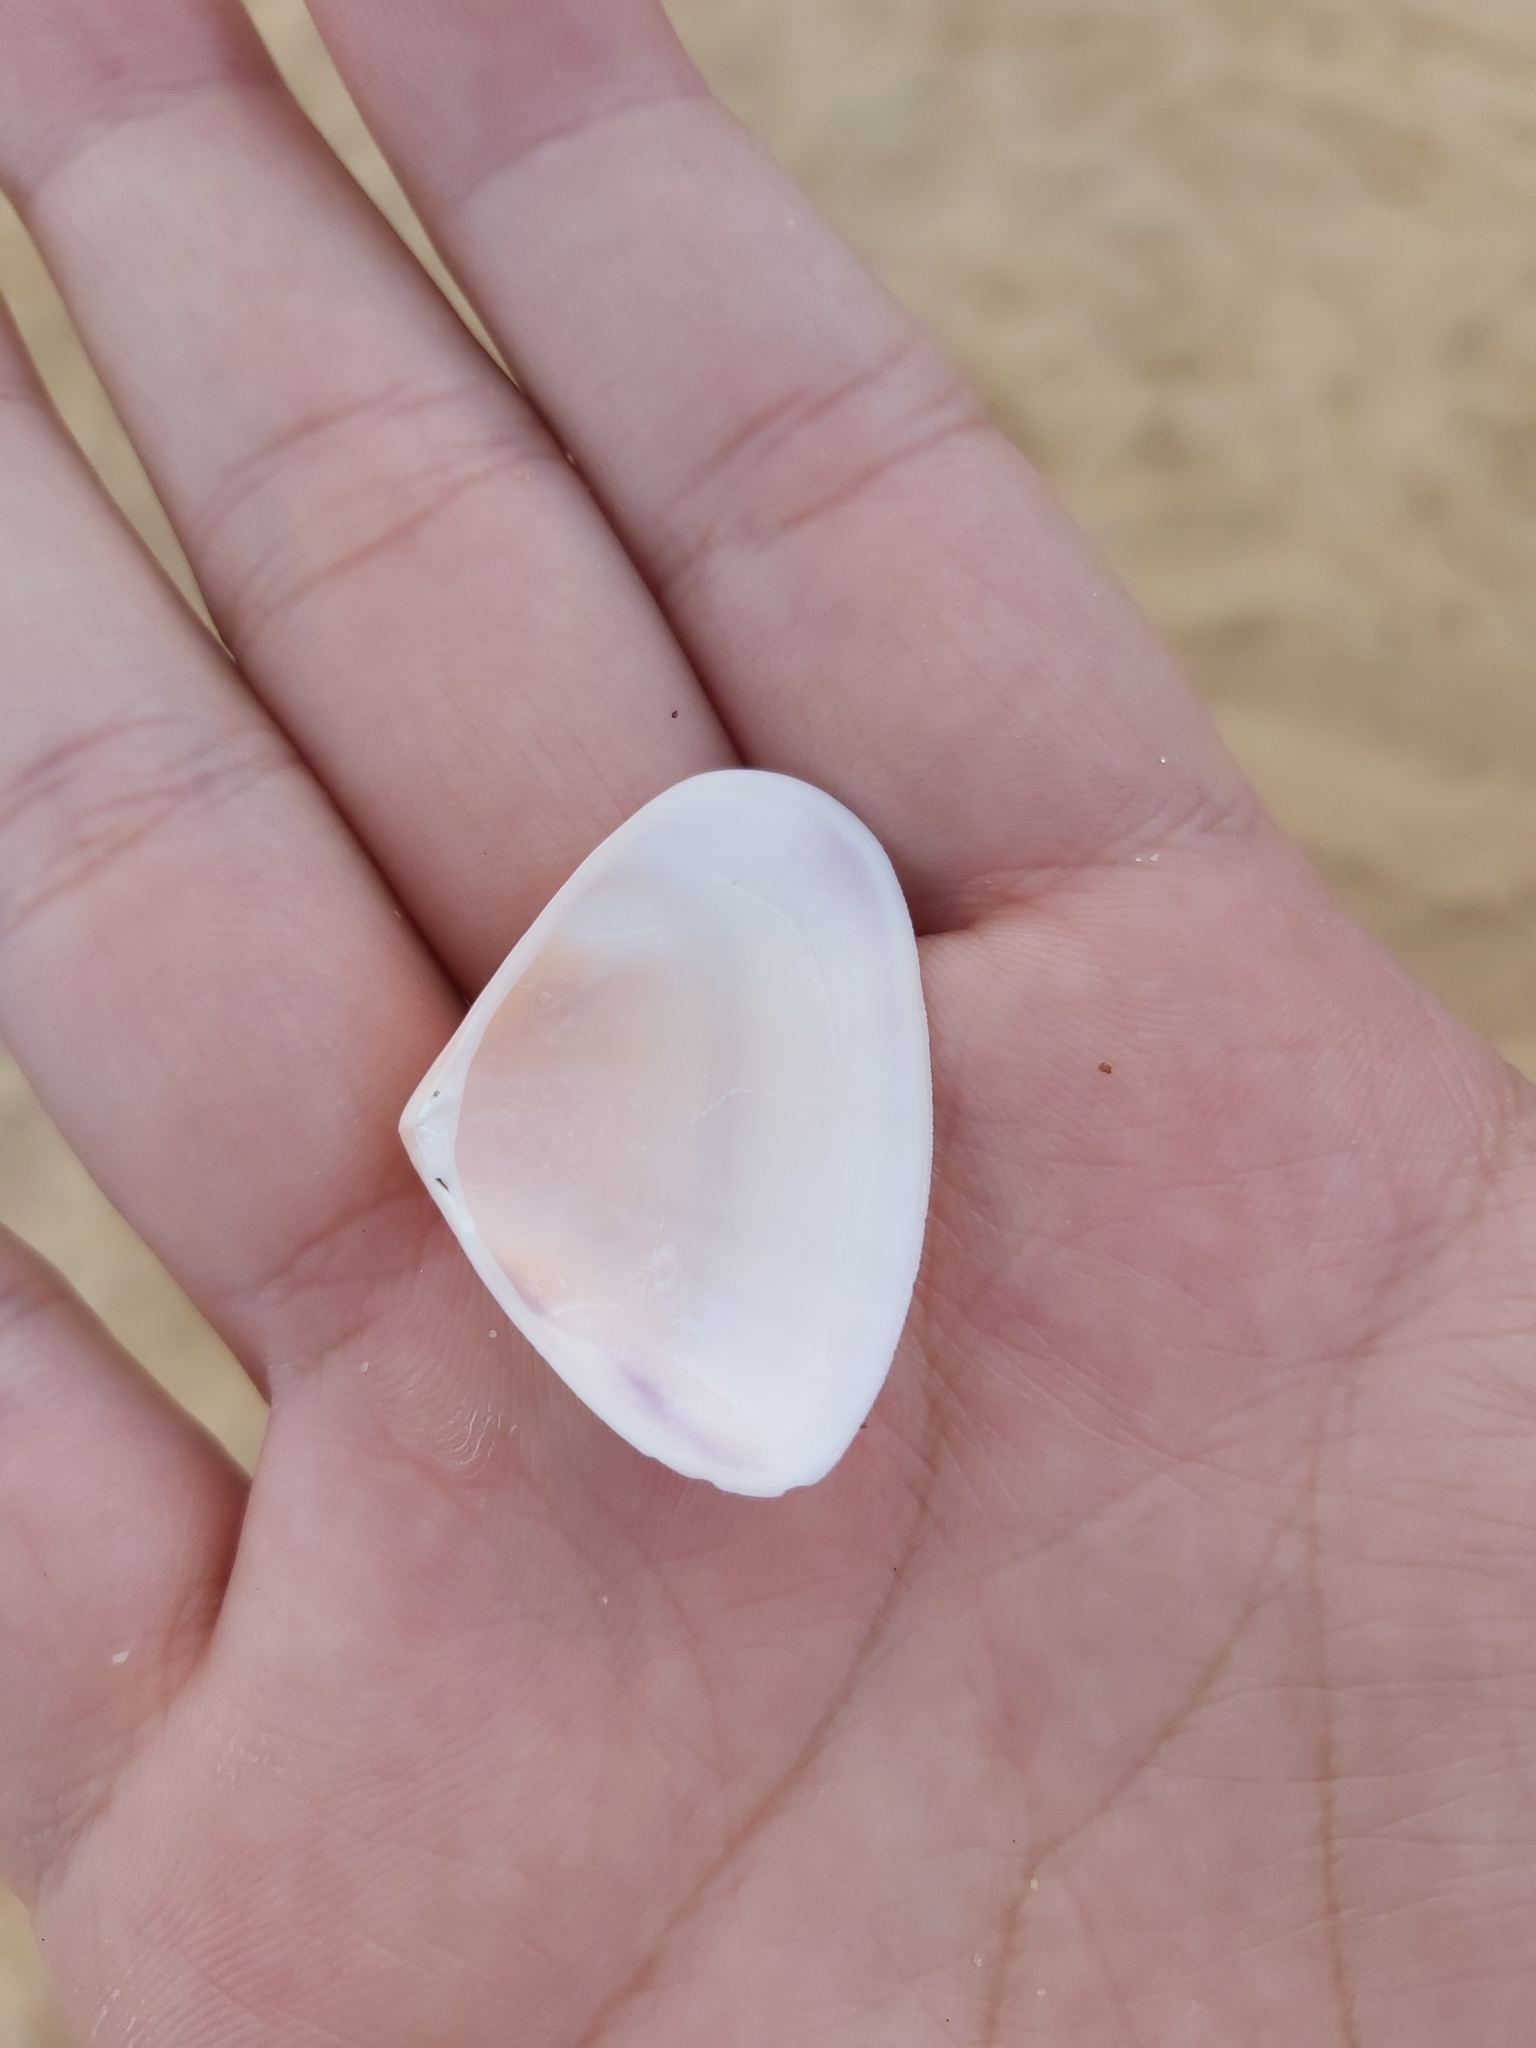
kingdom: Animalia
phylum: Mollusca
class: Bivalvia
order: Cardiida
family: Donacidae
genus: Latona
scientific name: Latona deltoides
